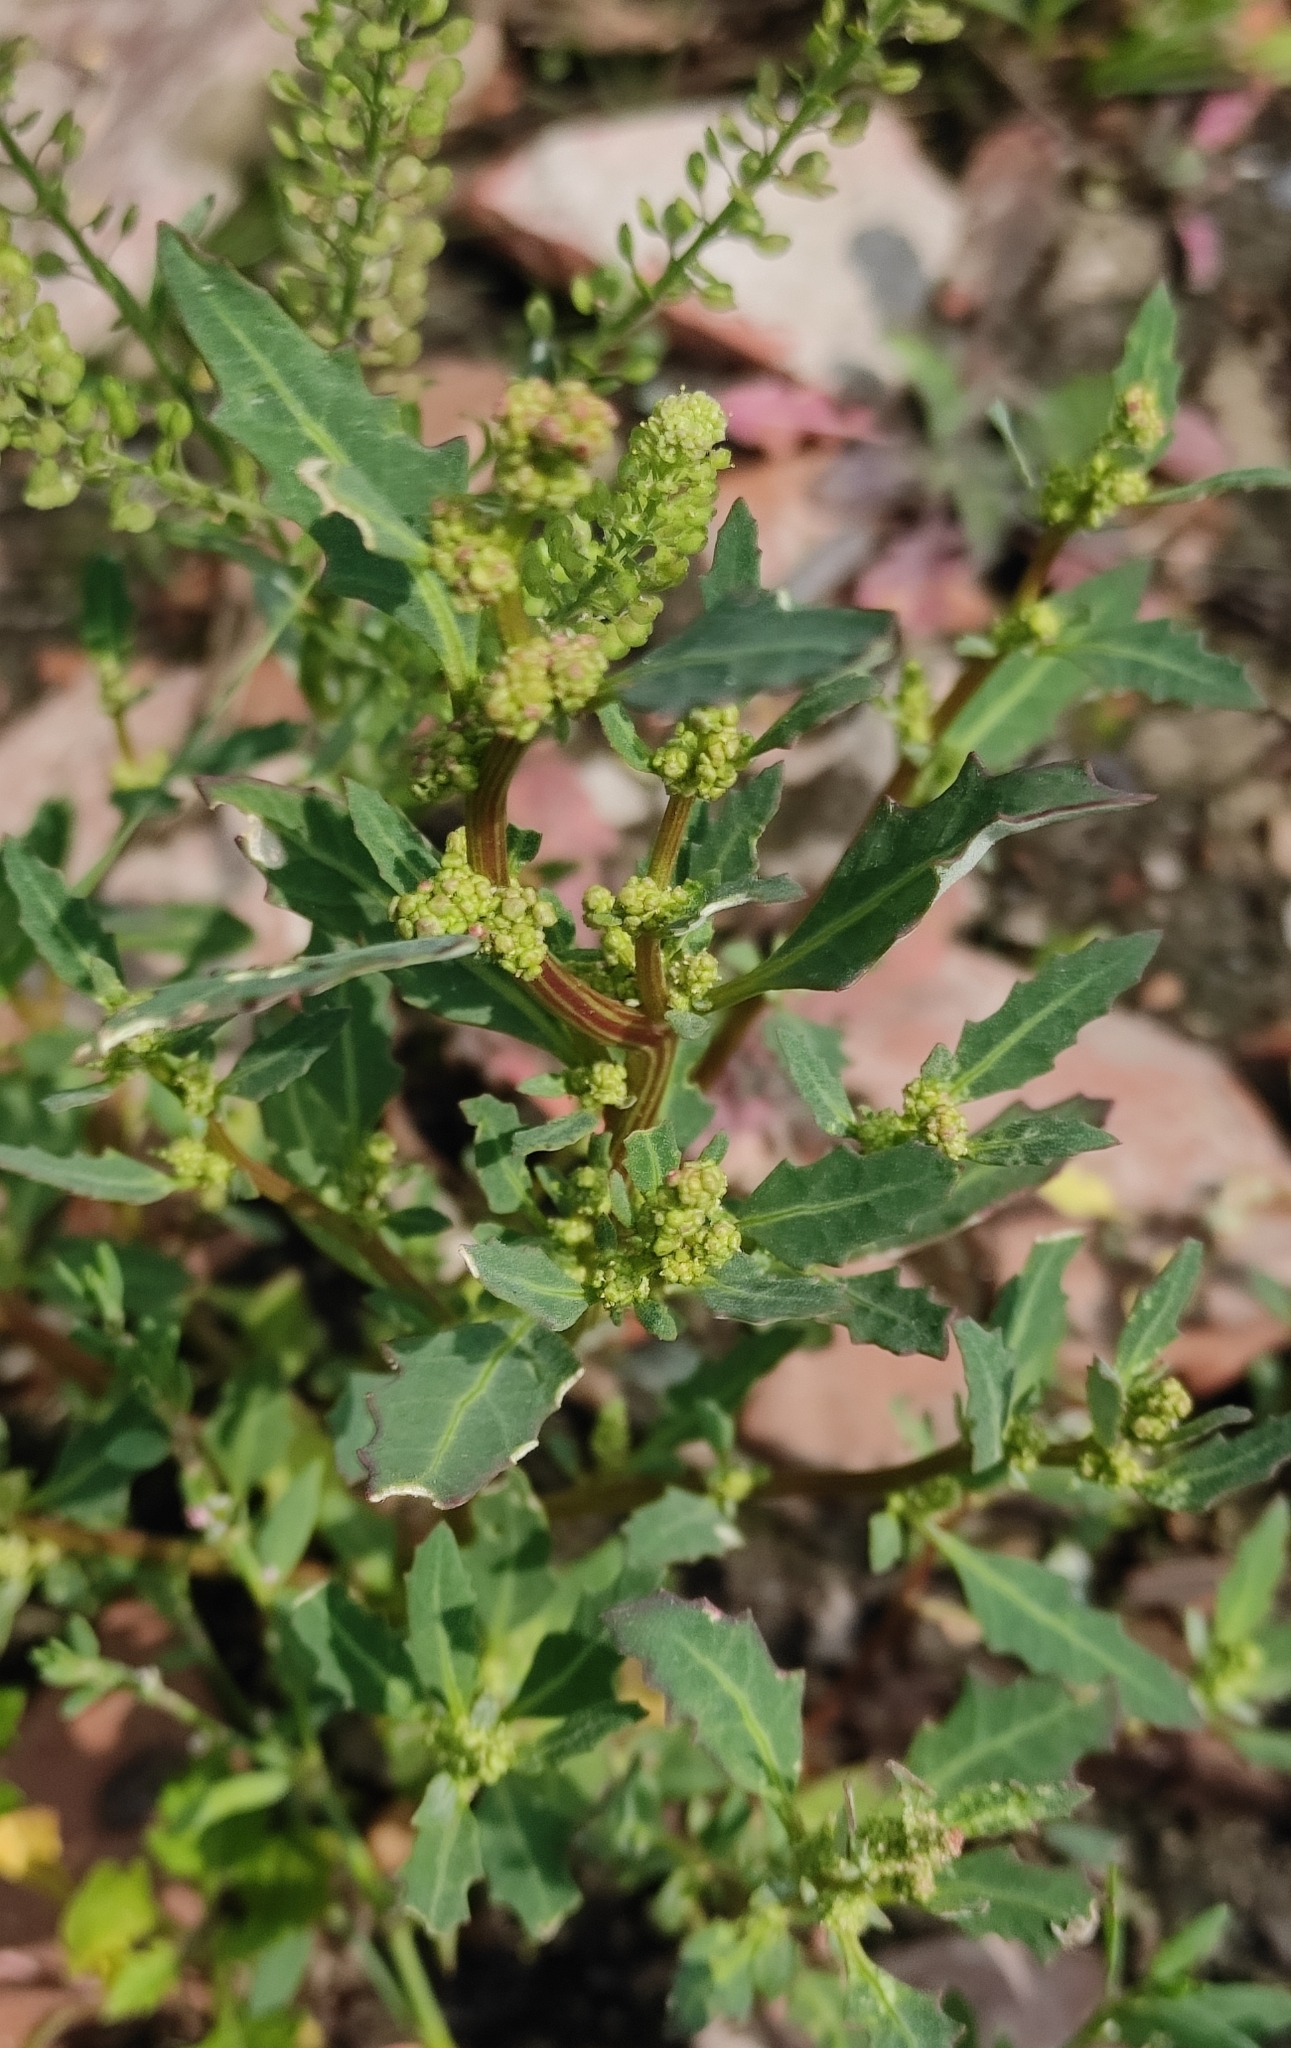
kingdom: Plantae
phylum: Tracheophyta
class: Magnoliopsida
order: Caryophyllales
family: Amaranthaceae
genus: Oxybasis
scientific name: Oxybasis glauca
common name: Glaucous goosefoot
